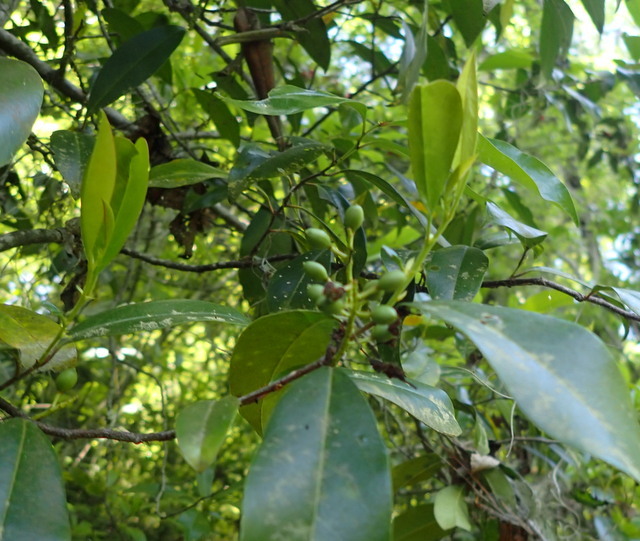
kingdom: Plantae
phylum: Tracheophyta
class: Magnoliopsida
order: Rosales
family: Rosaceae
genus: Prunus
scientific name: Prunus caroliniana
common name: Carolina laurel cherry
